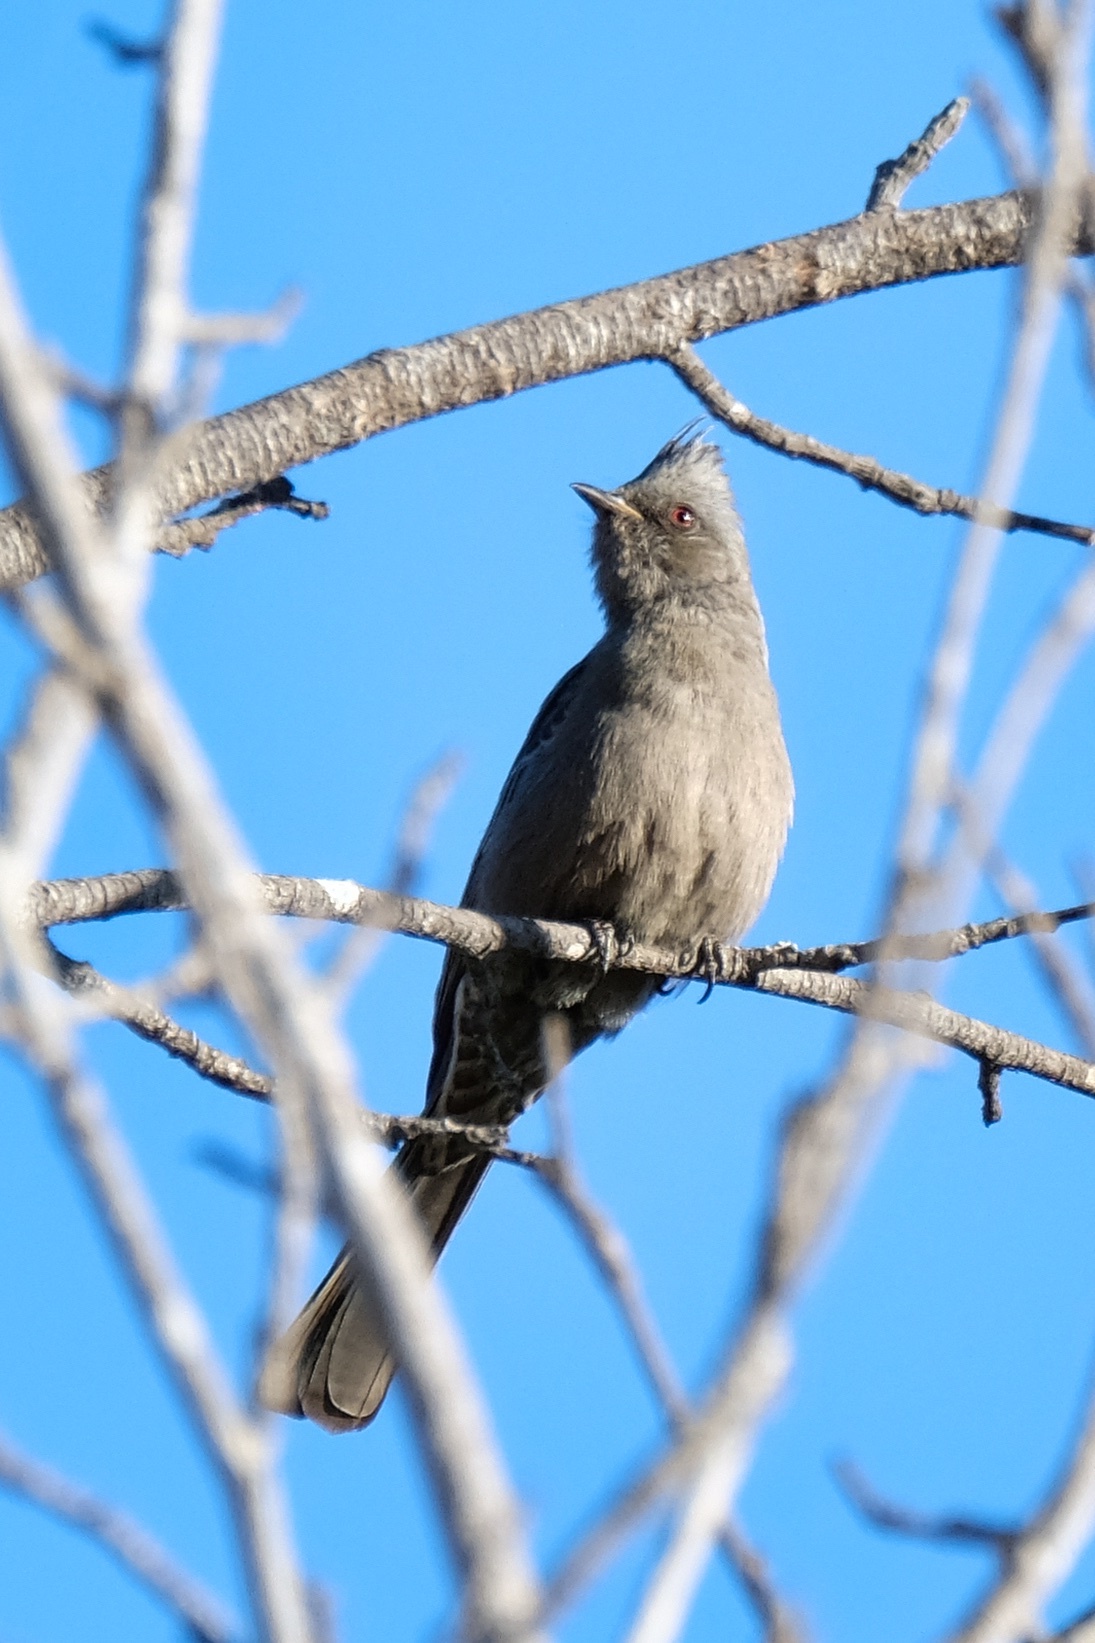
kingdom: Animalia
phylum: Chordata
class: Aves
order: Passeriformes
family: Ptilogonatidae
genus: Phainopepla
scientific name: Phainopepla nitens
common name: Phainopepla
